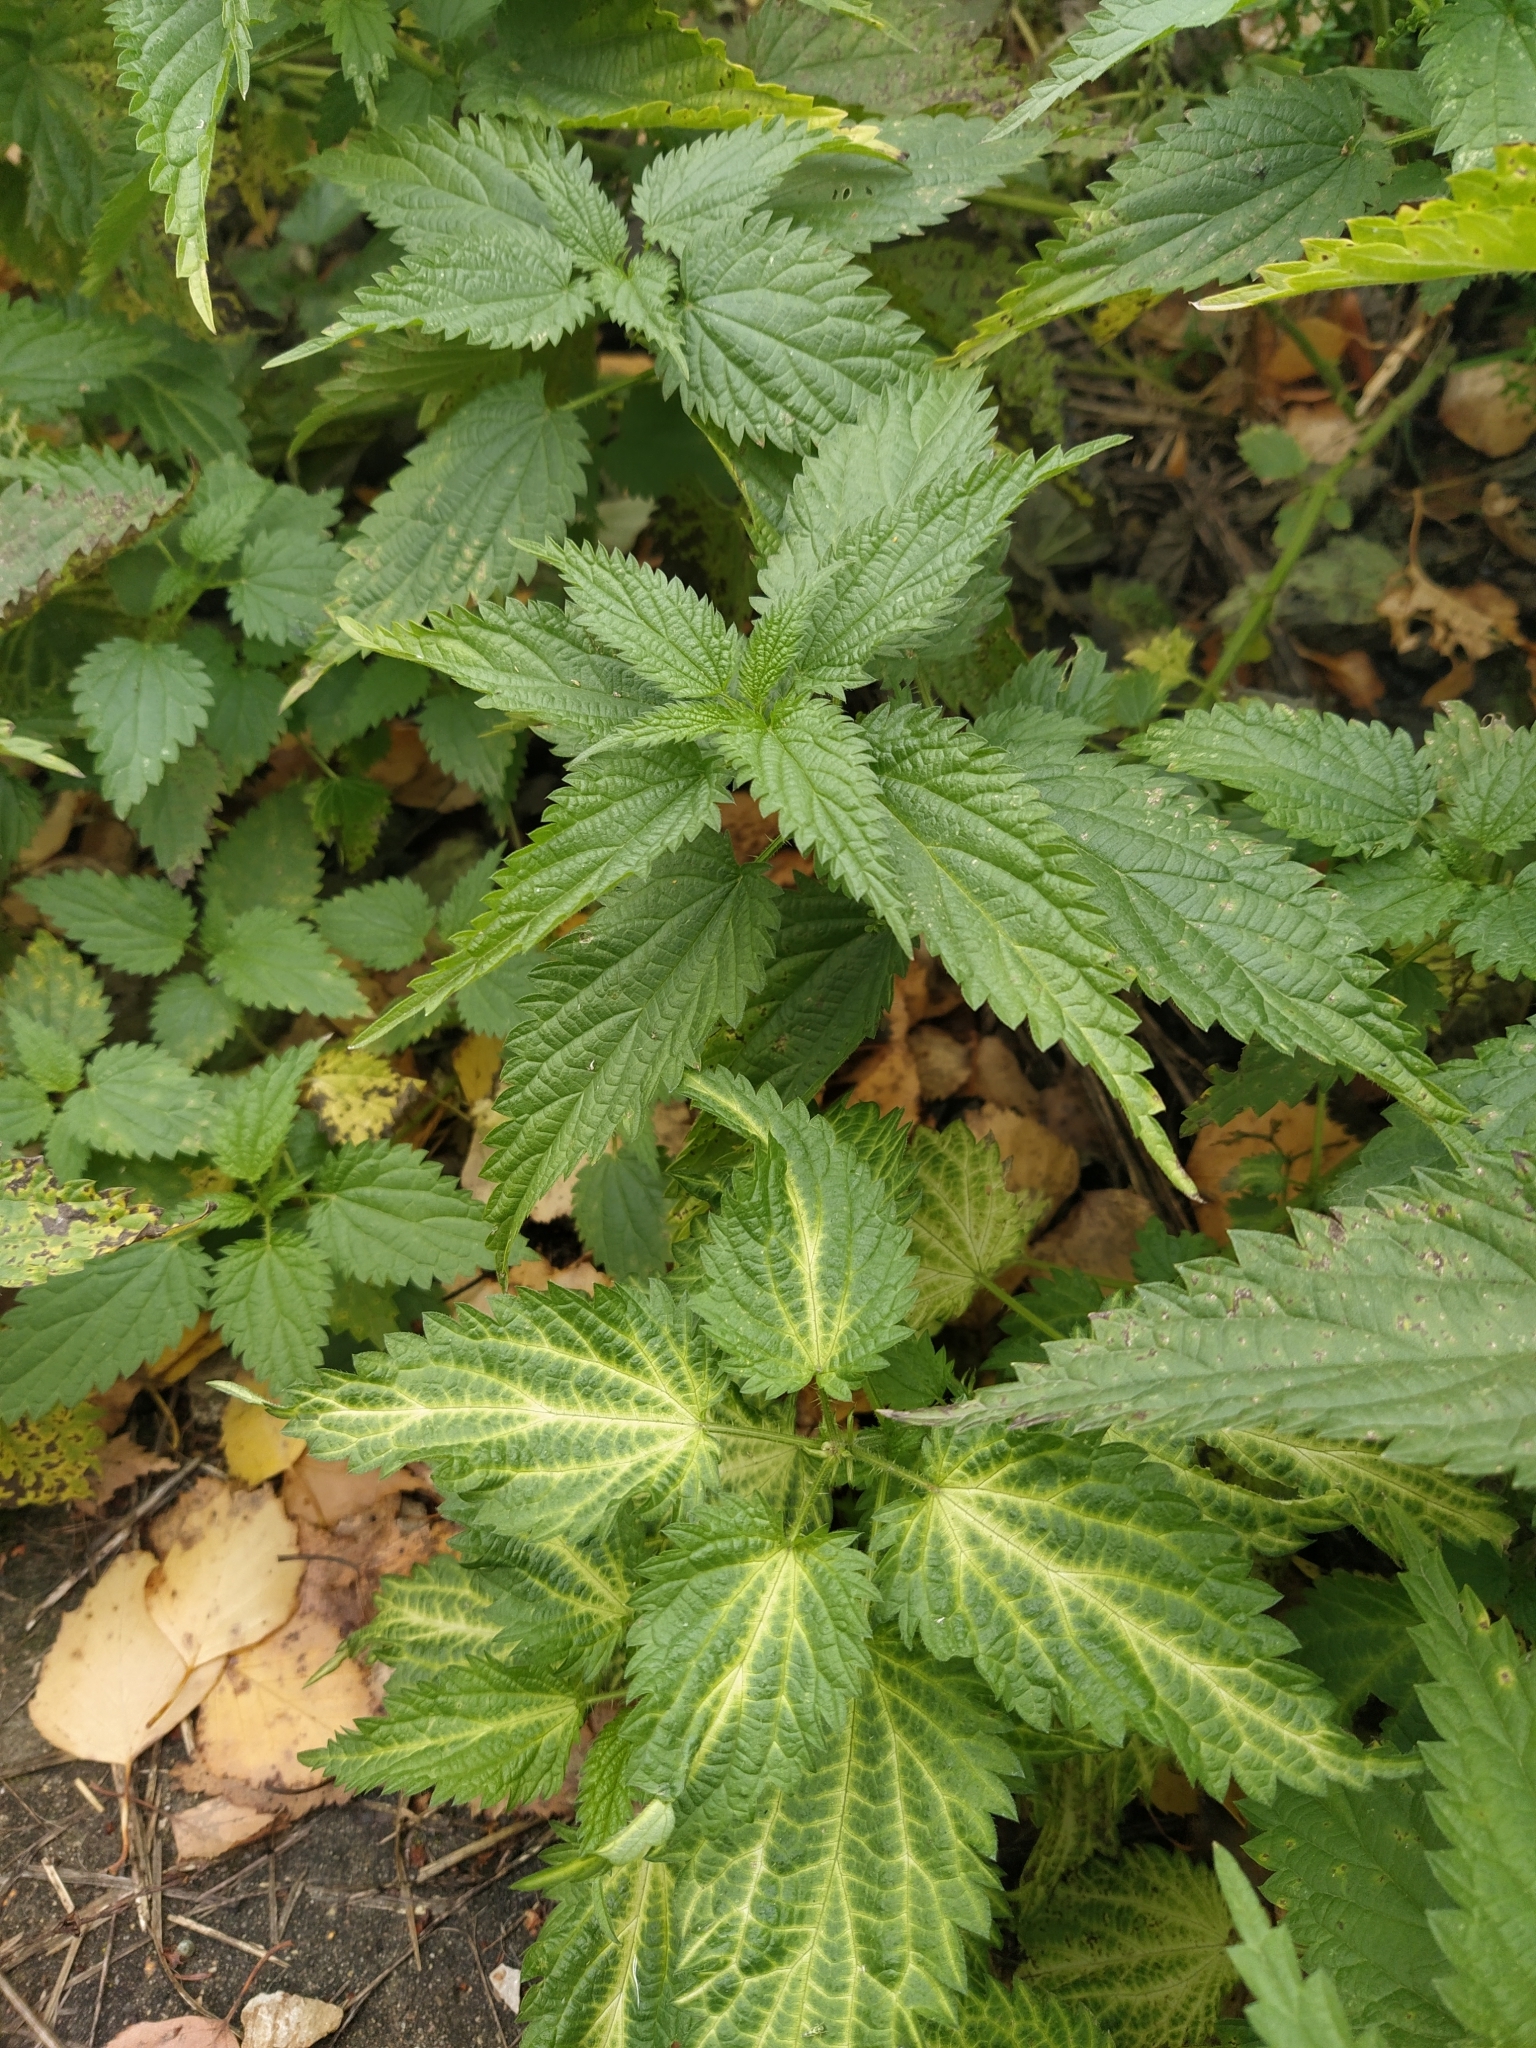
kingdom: Plantae
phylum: Tracheophyta
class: Magnoliopsida
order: Rosales
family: Urticaceae
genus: Urtica
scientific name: Urtica dioica
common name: Common nettle
